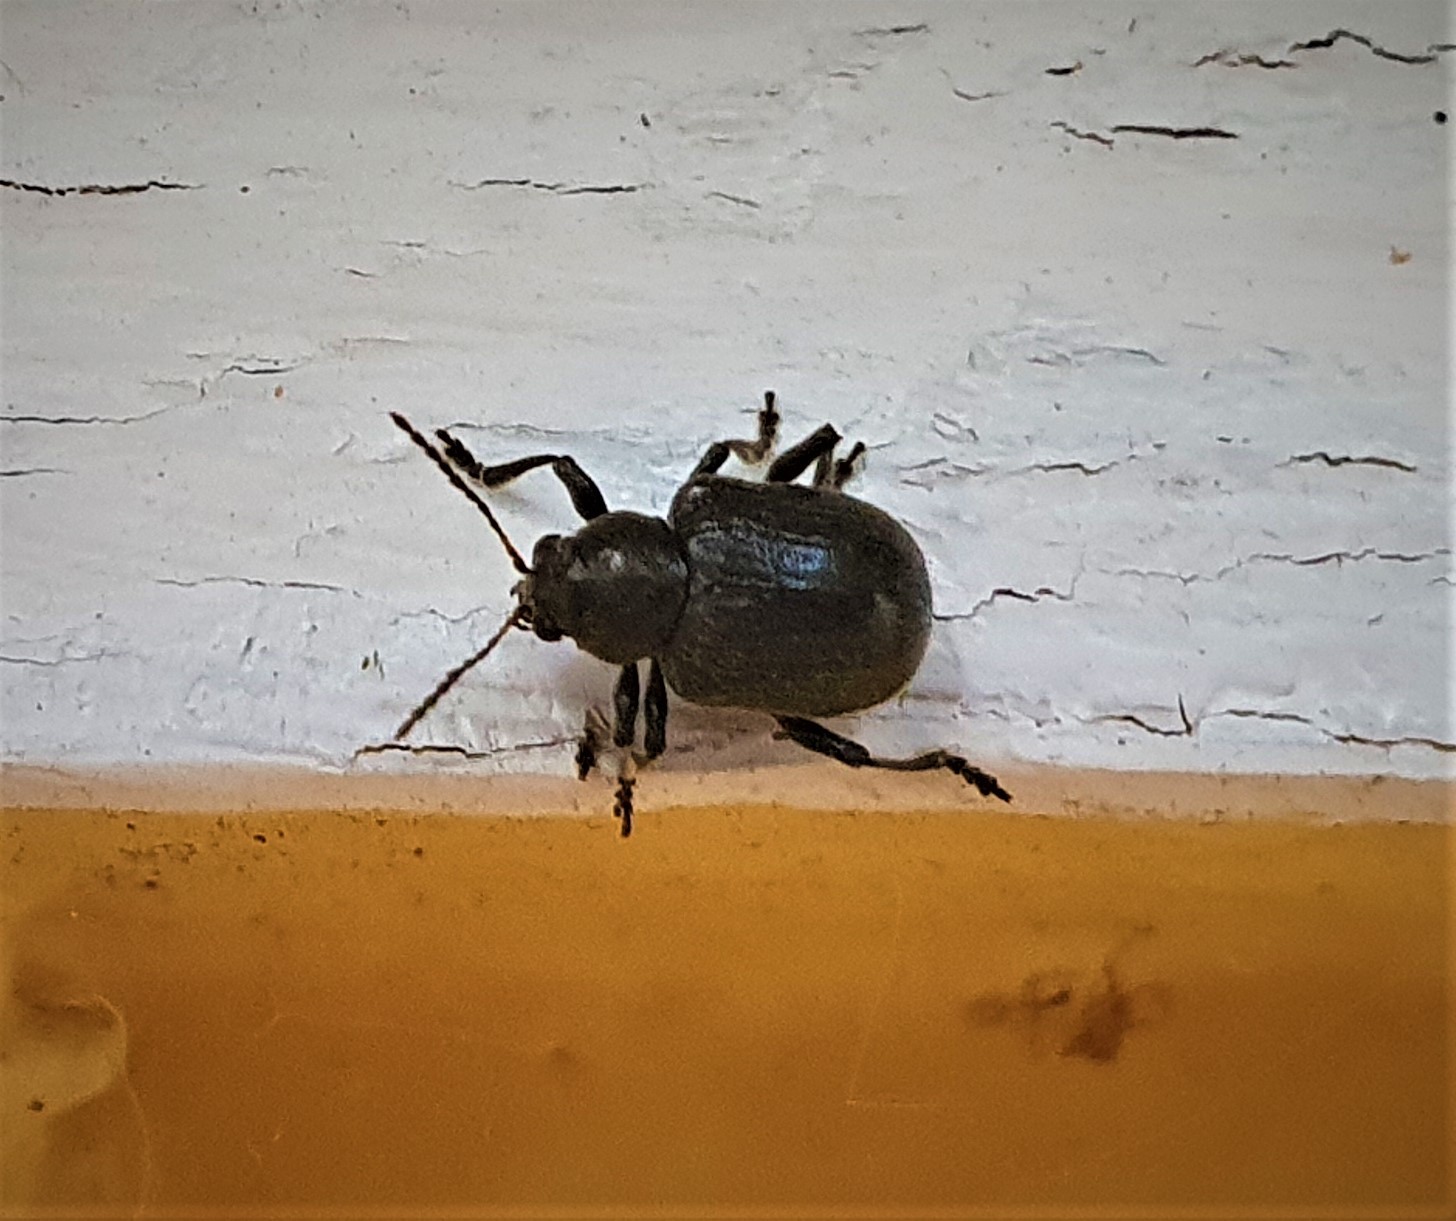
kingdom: Animalia
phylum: Arthropoda
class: Insecta
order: Coleoptera
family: Chrysomelidae
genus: Bromius
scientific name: Bromius obscurus
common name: Western grape rootworm
